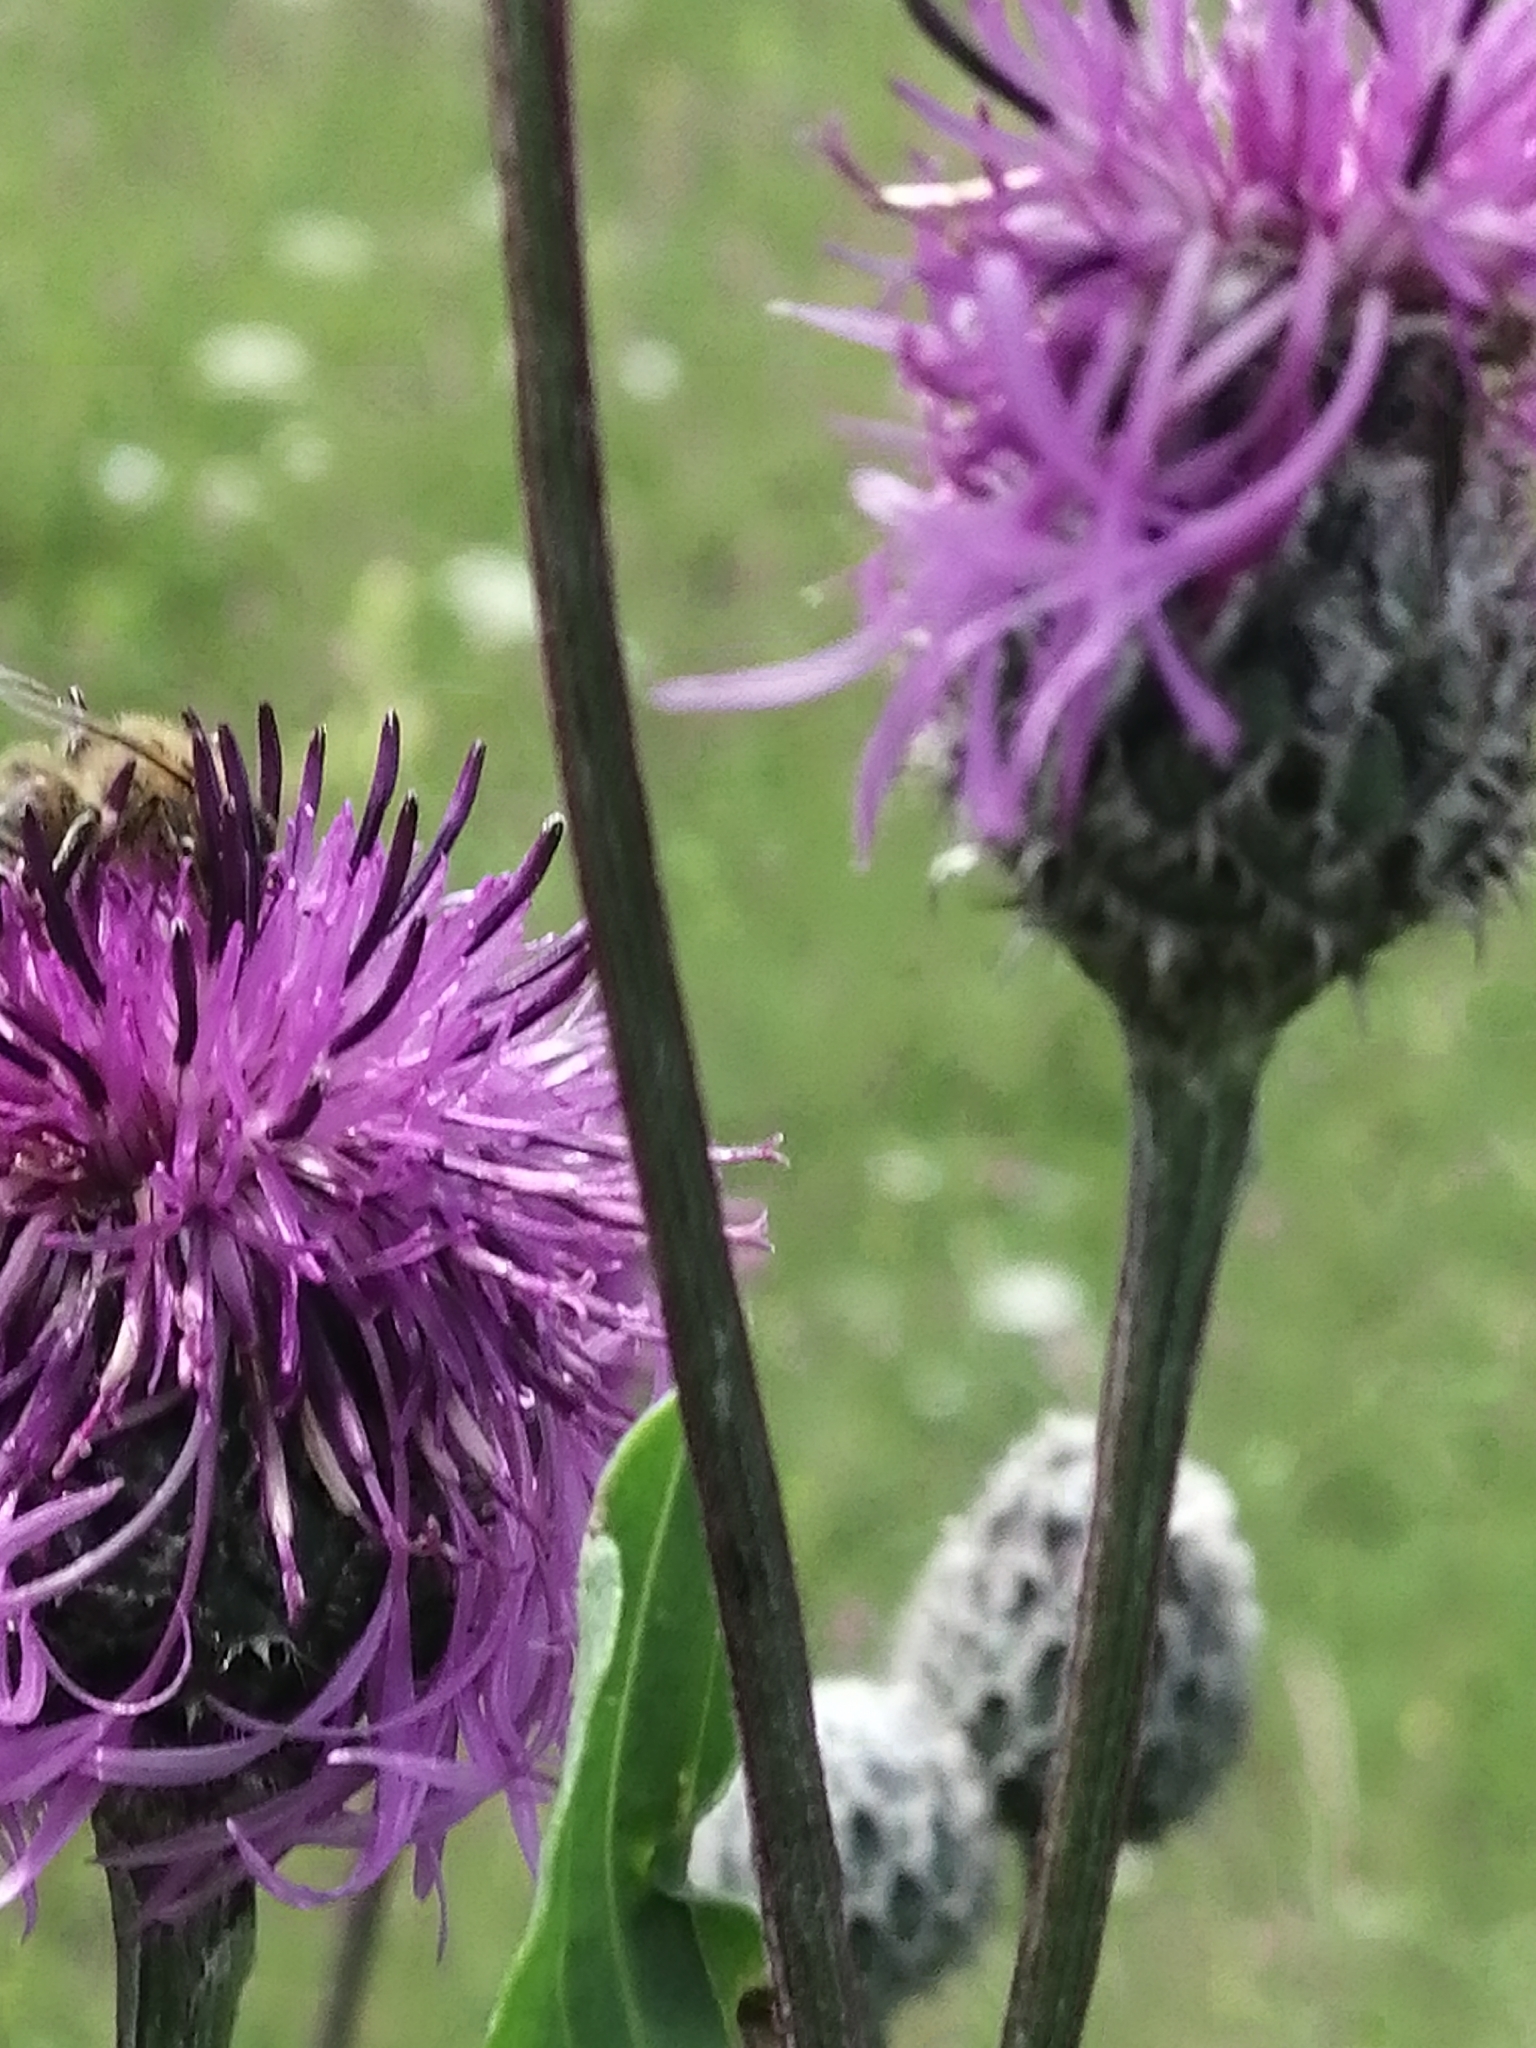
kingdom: Animalia
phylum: Arthropoda
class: Insecta
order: Hymenoptera
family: Apidae
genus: Apis
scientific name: Apis mellifera
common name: Honey bee
